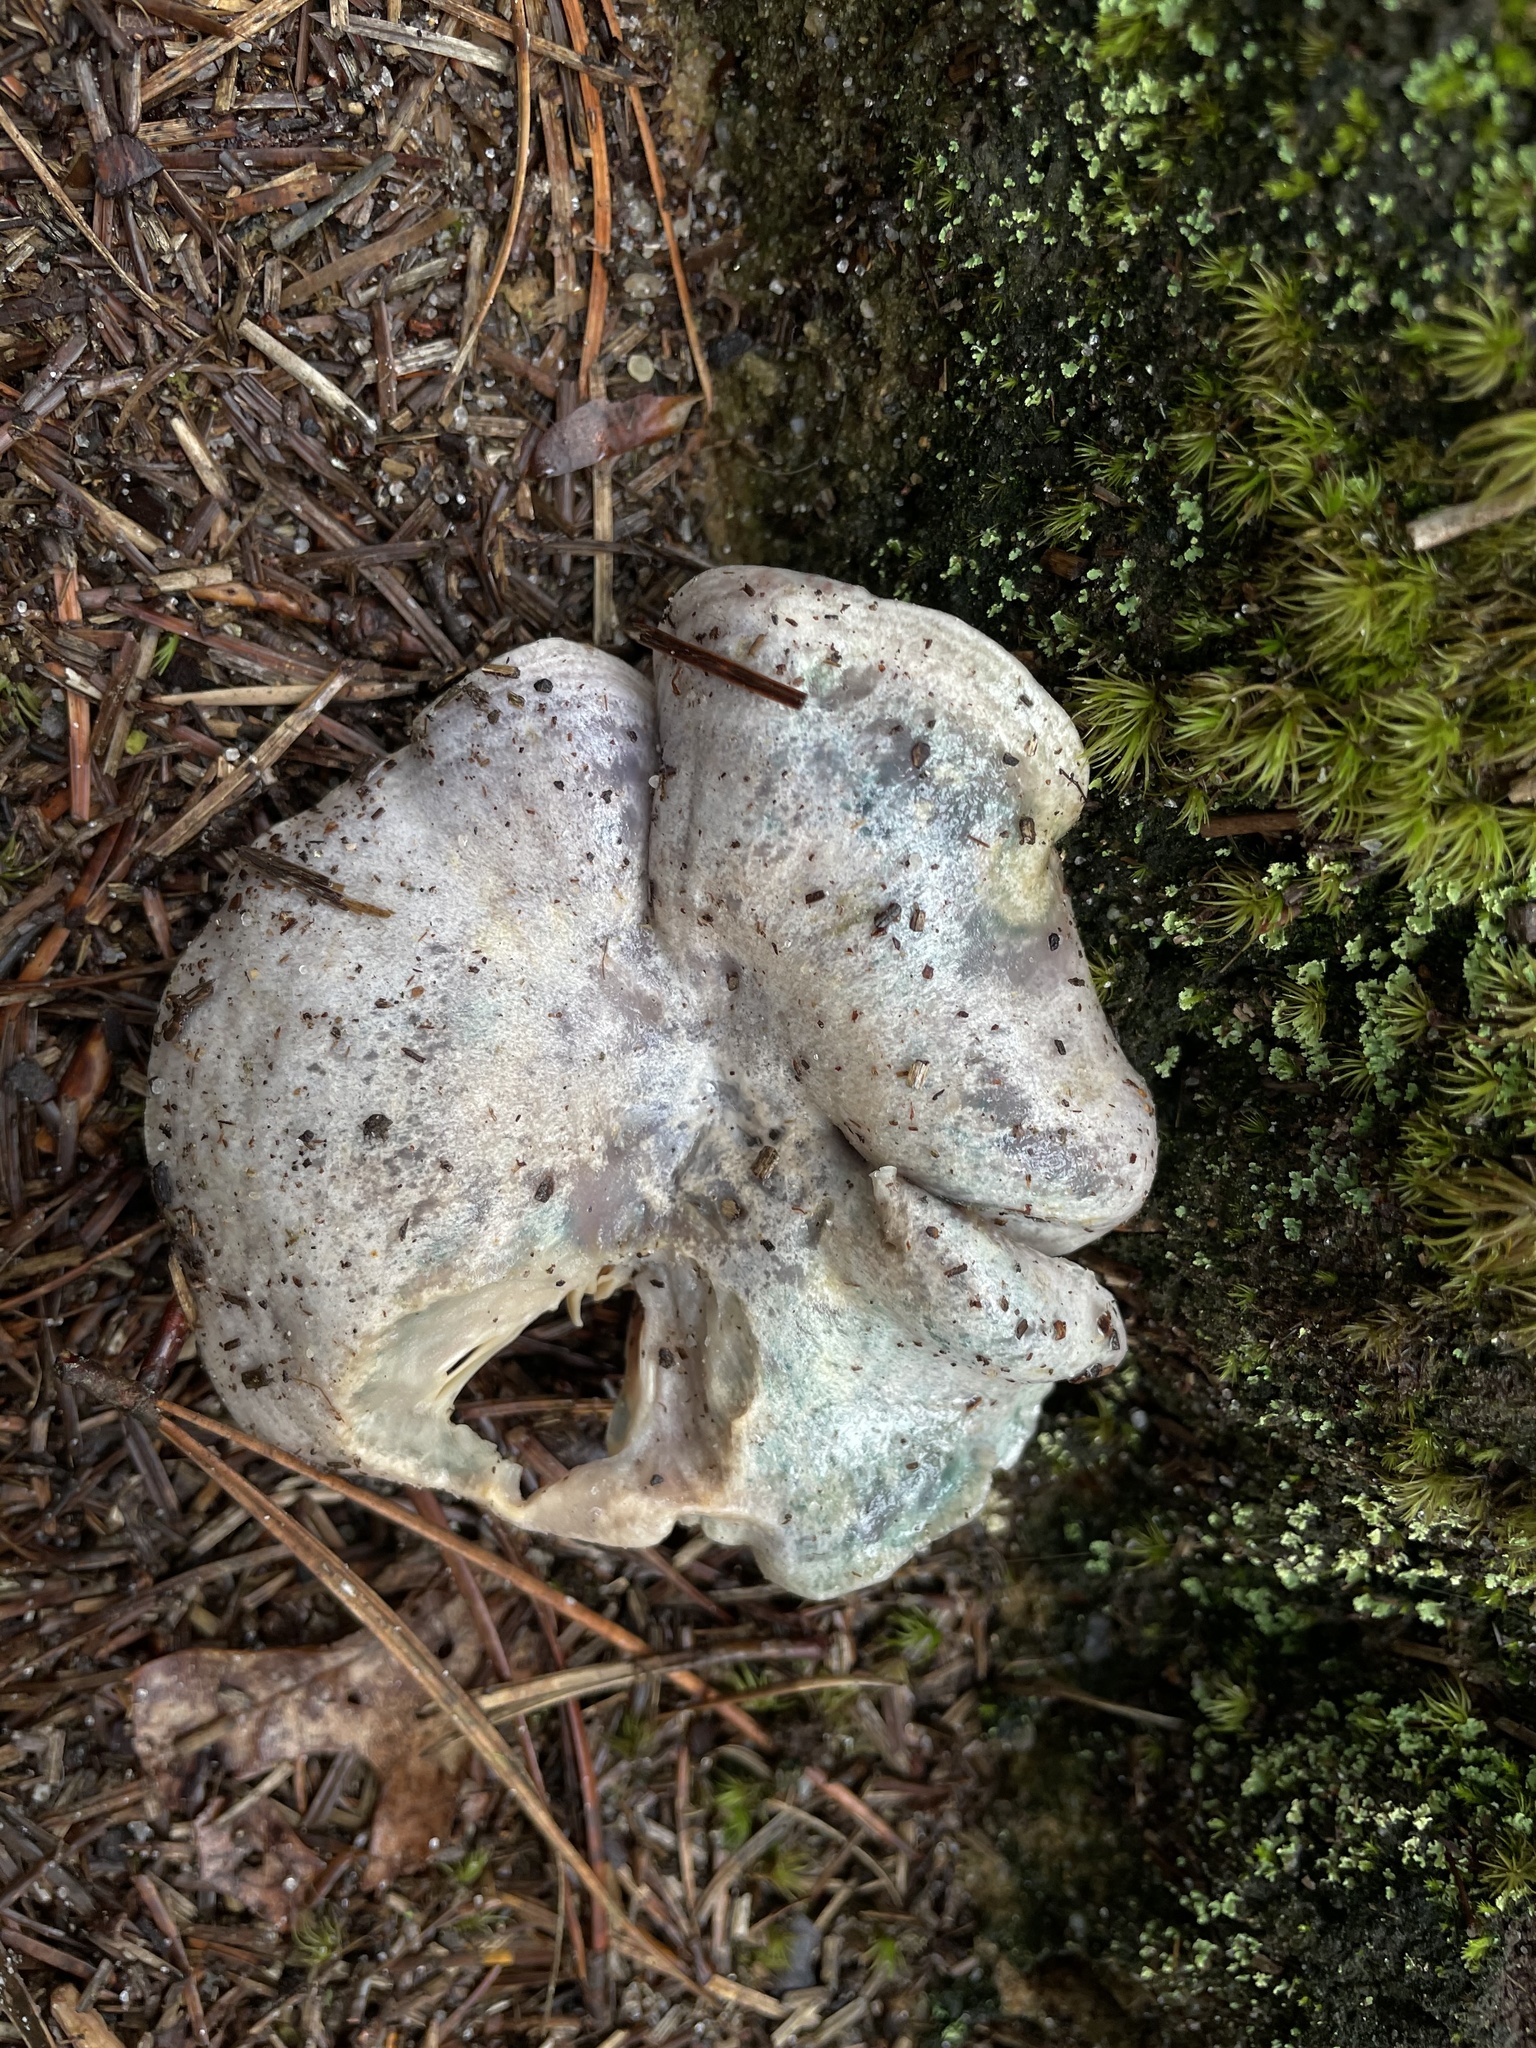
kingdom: Fungi
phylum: Basidiomycota
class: Agaricomycetes
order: Russulales
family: Russulaceae
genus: Lactarius
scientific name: Lactarius paradoxus
